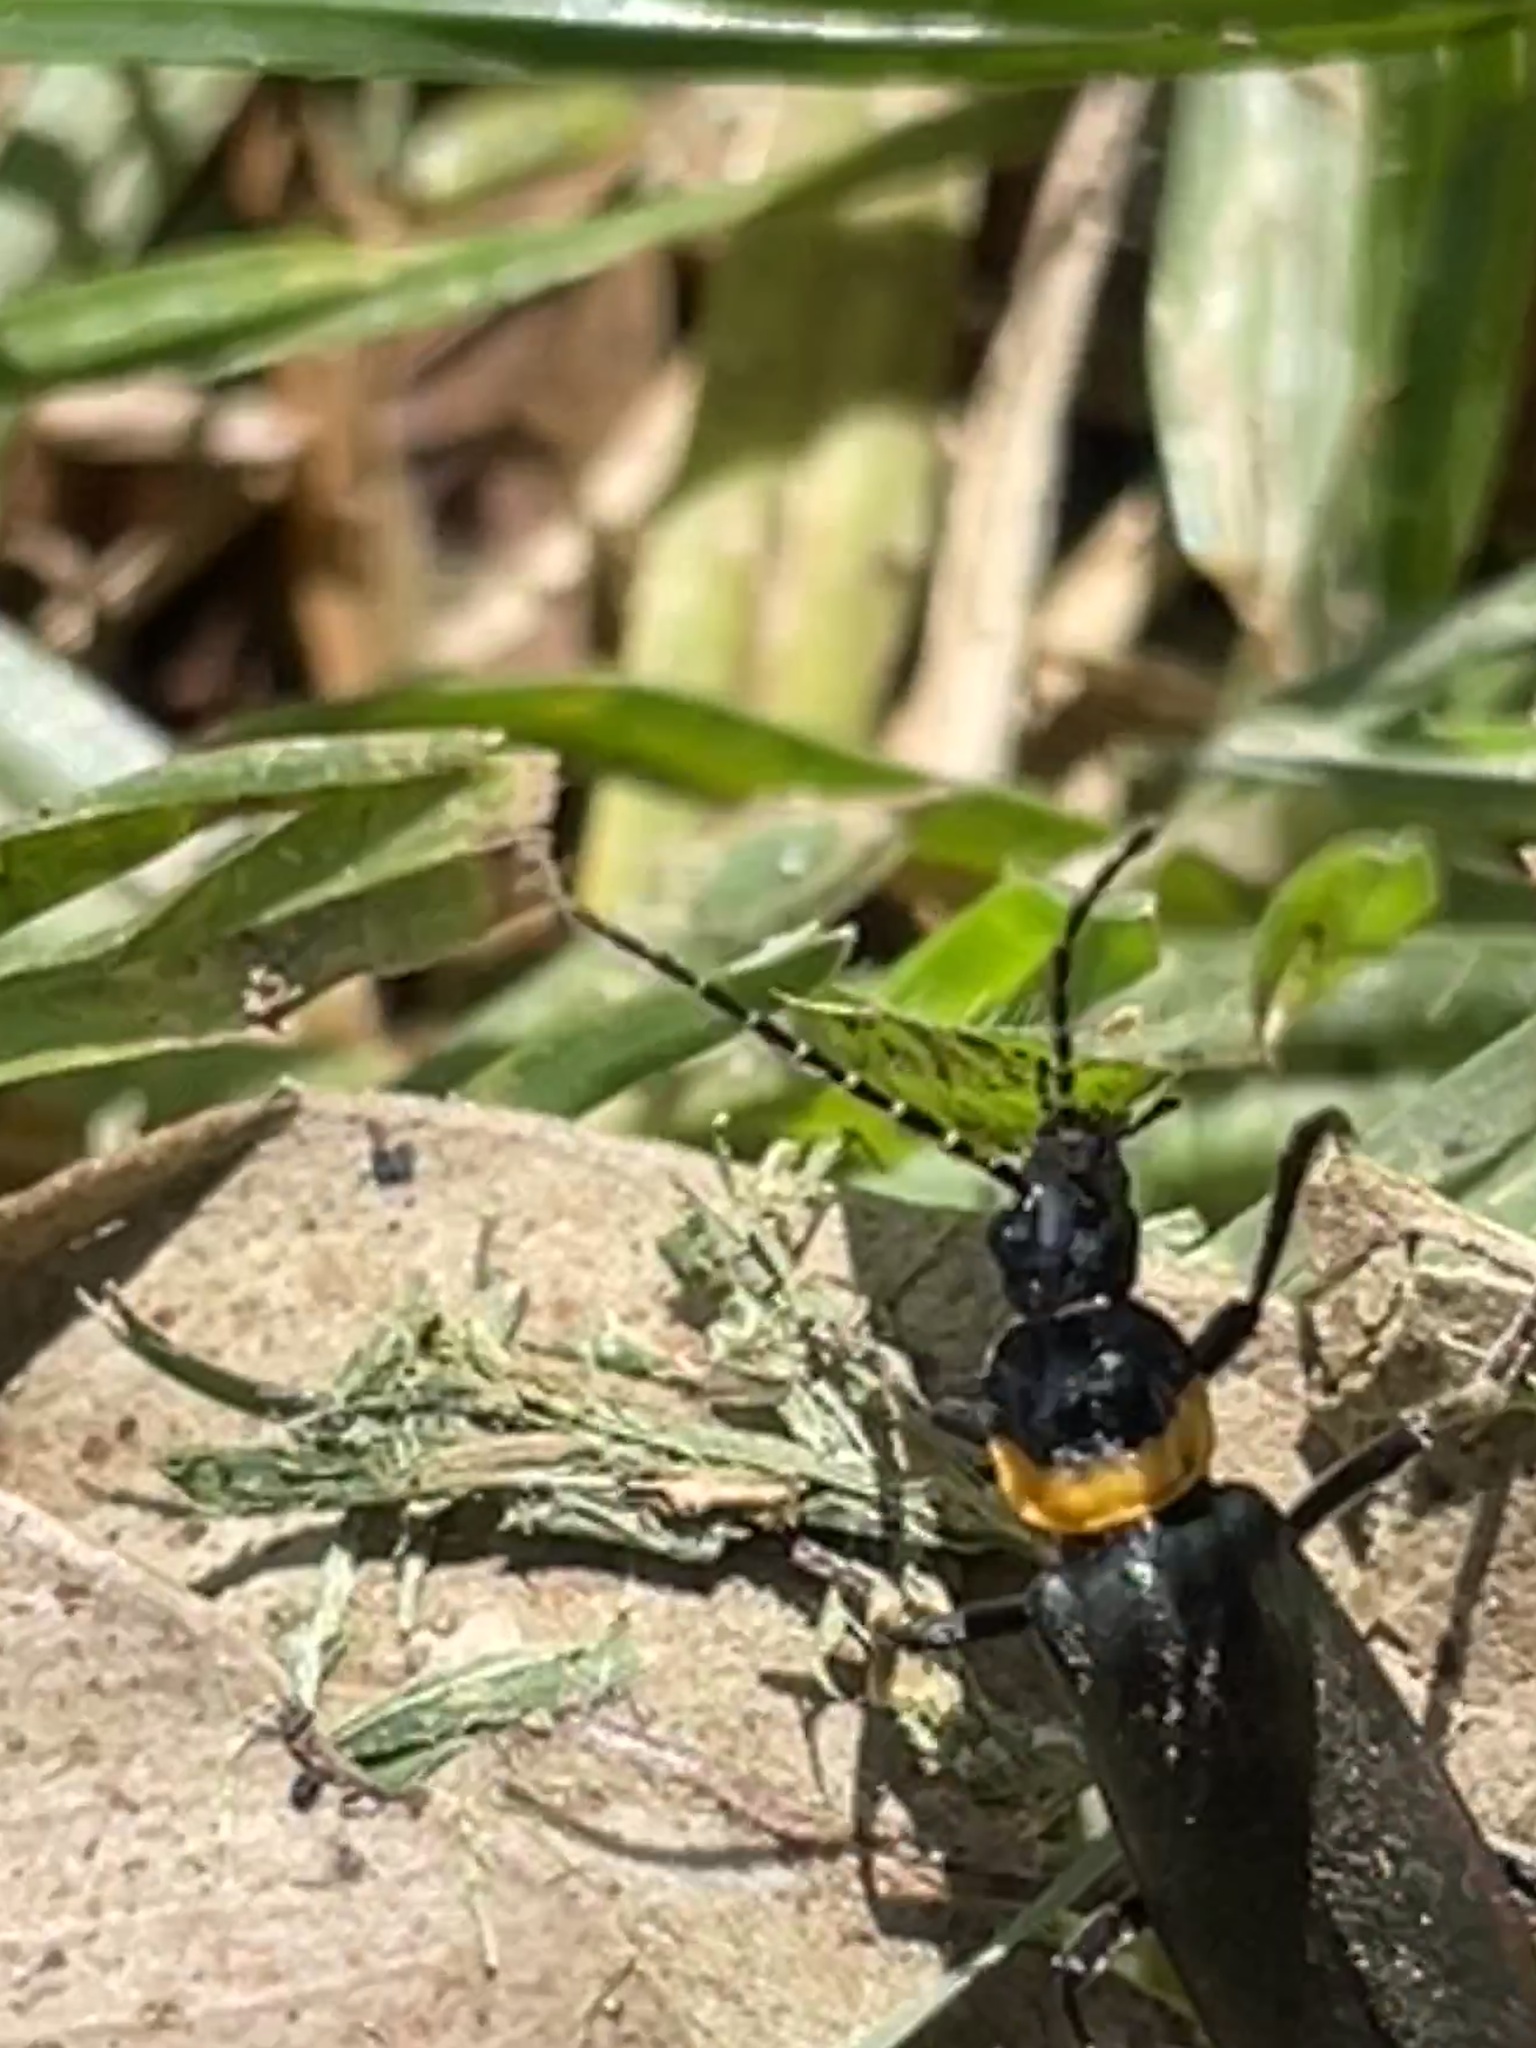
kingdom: Animalia
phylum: Arthropoda
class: Insecta
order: Coleoptera
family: Cantharidae
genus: Chauliognathus
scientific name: Chauliognathus
